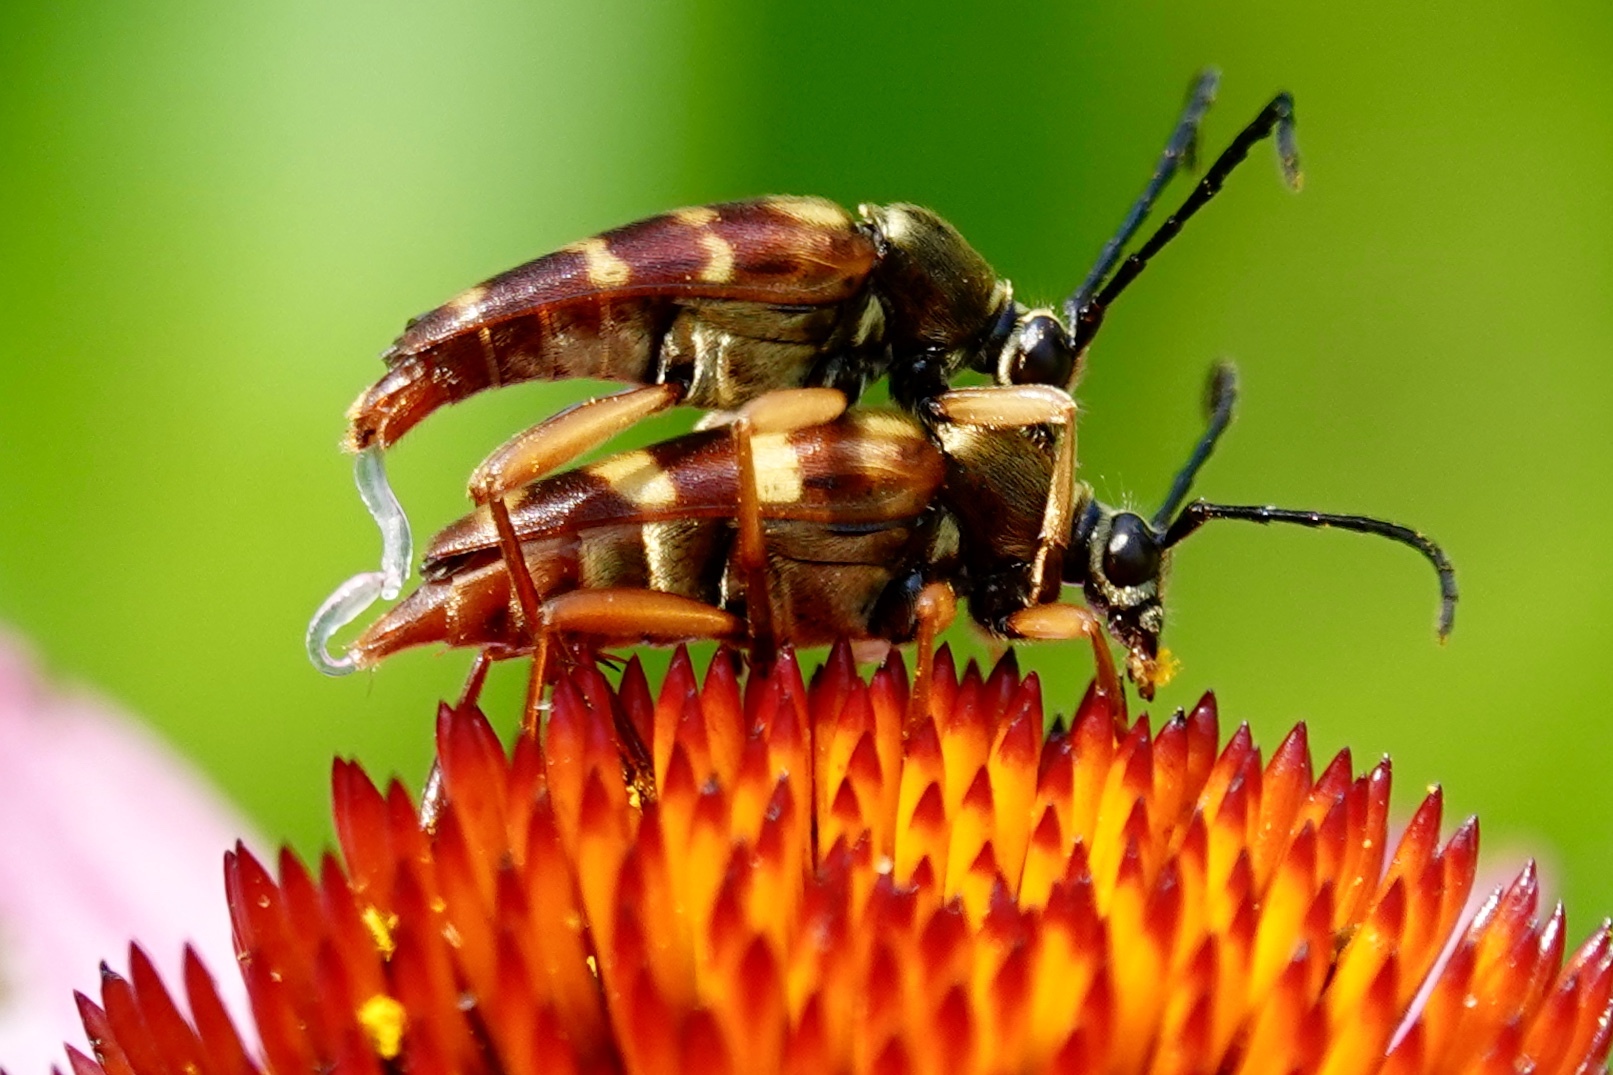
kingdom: Animalia
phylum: Arthropoda
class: Insecta
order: Coleoptera
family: Cerambycidae
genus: Typocerus
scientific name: Typocerus velutinus
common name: Banded longhorn beetle
